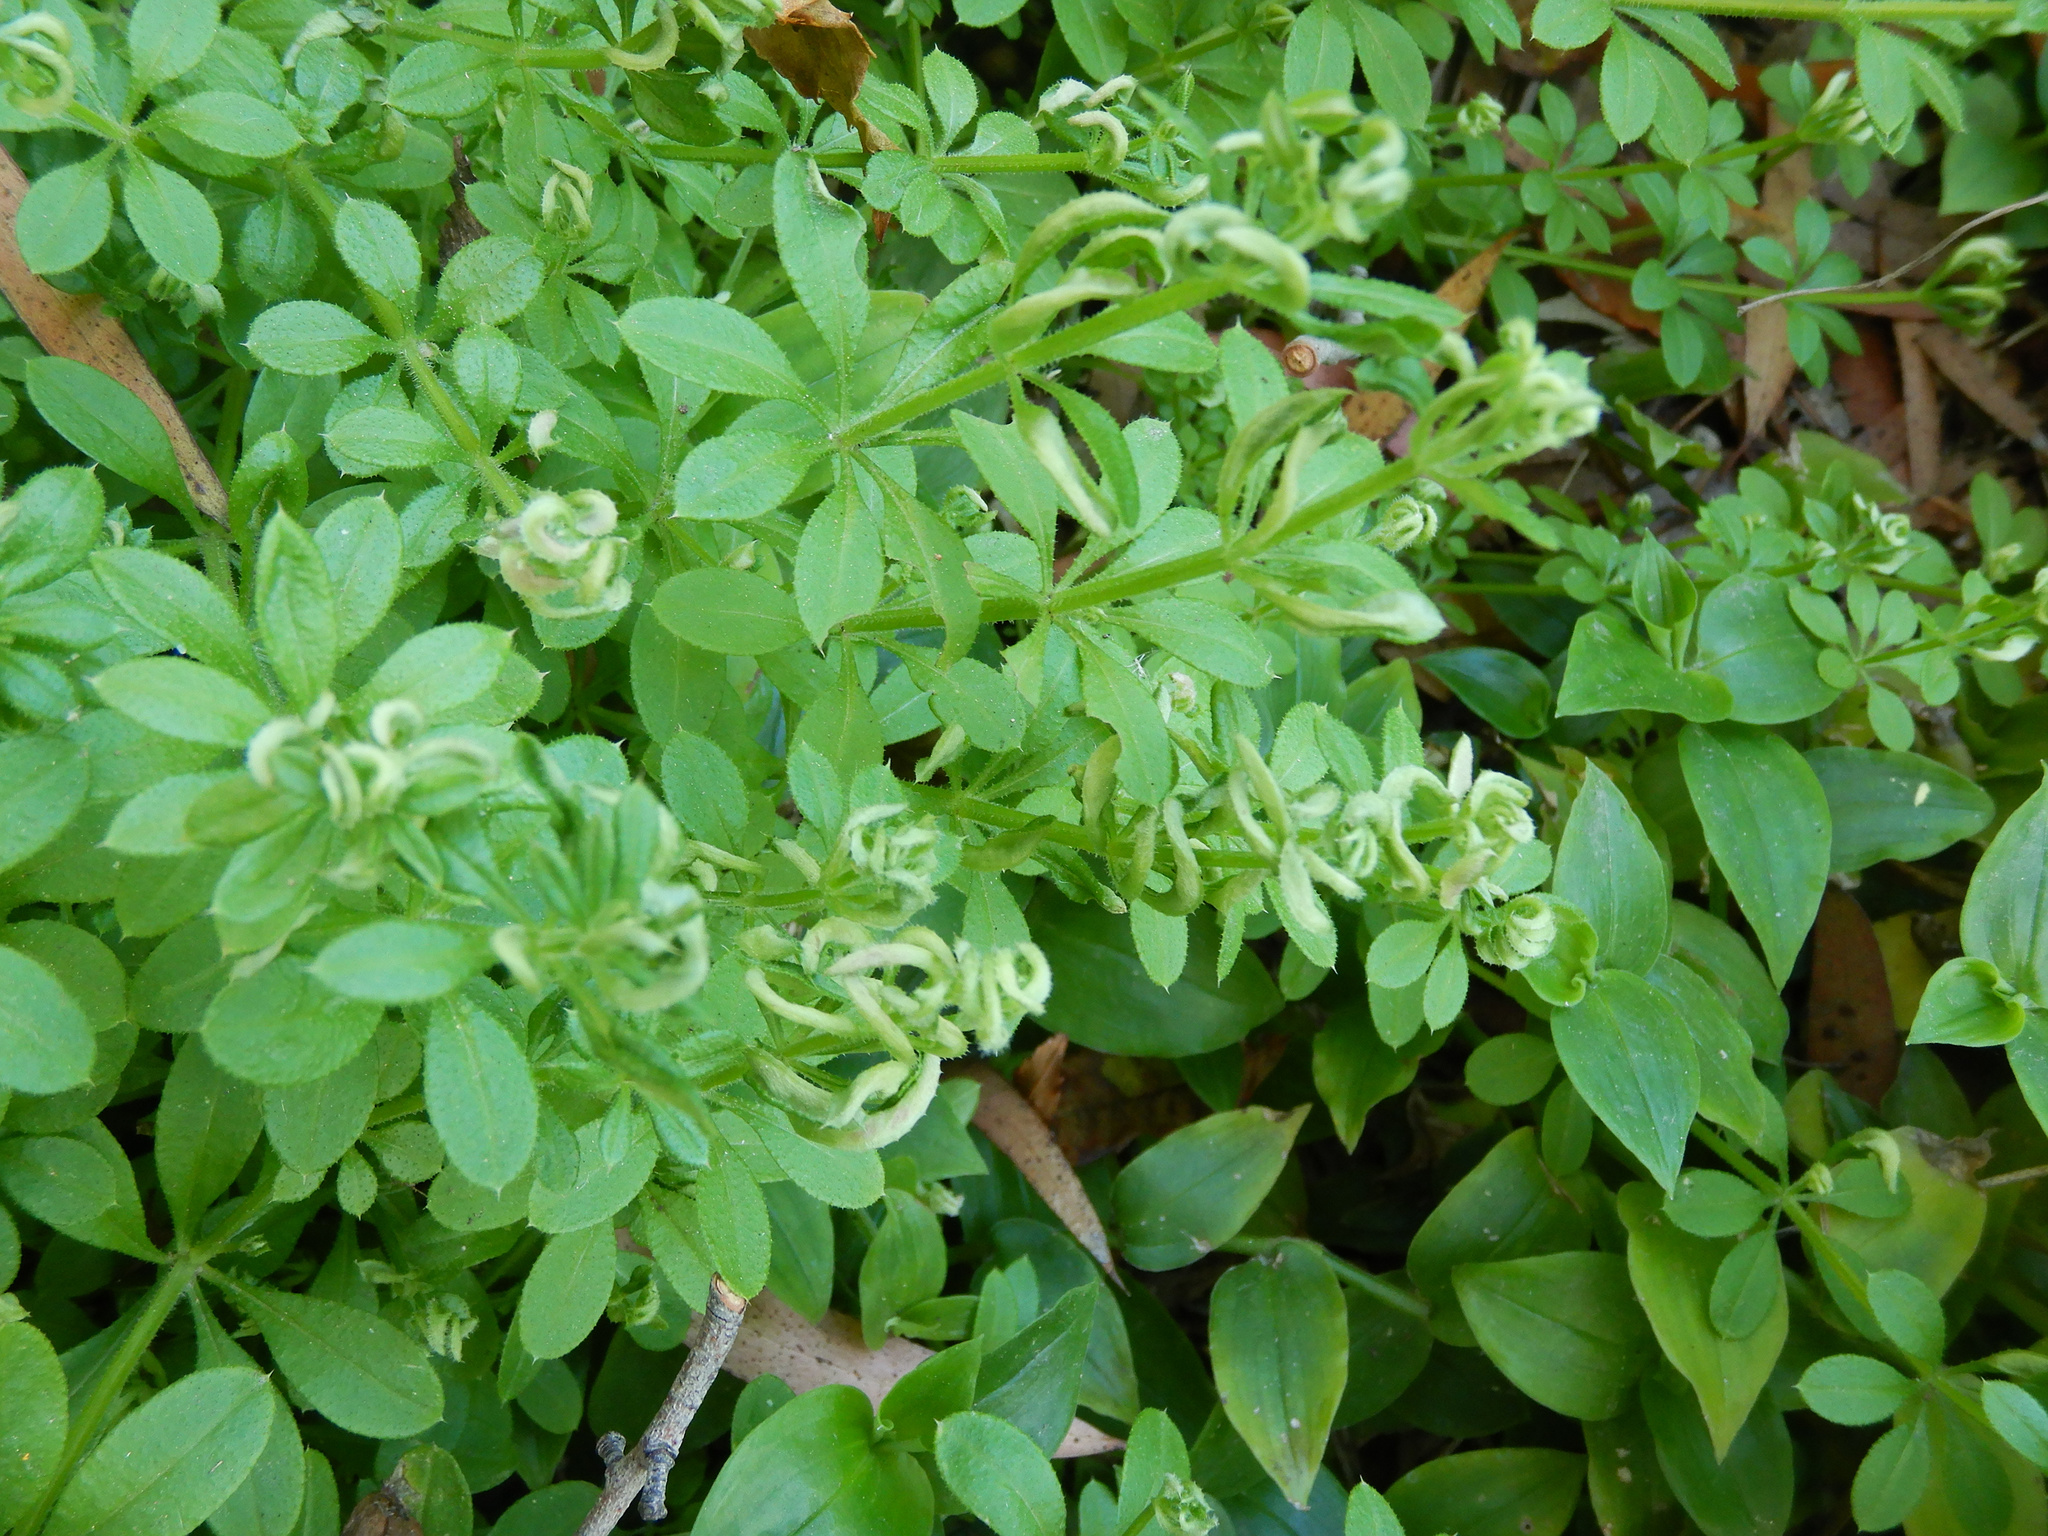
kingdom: Animalia
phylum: Arthropoda
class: Arachnida
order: Trombidiformes
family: Eriophyidae
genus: Cecidophyes
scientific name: Cecidophyes rouhollahi
